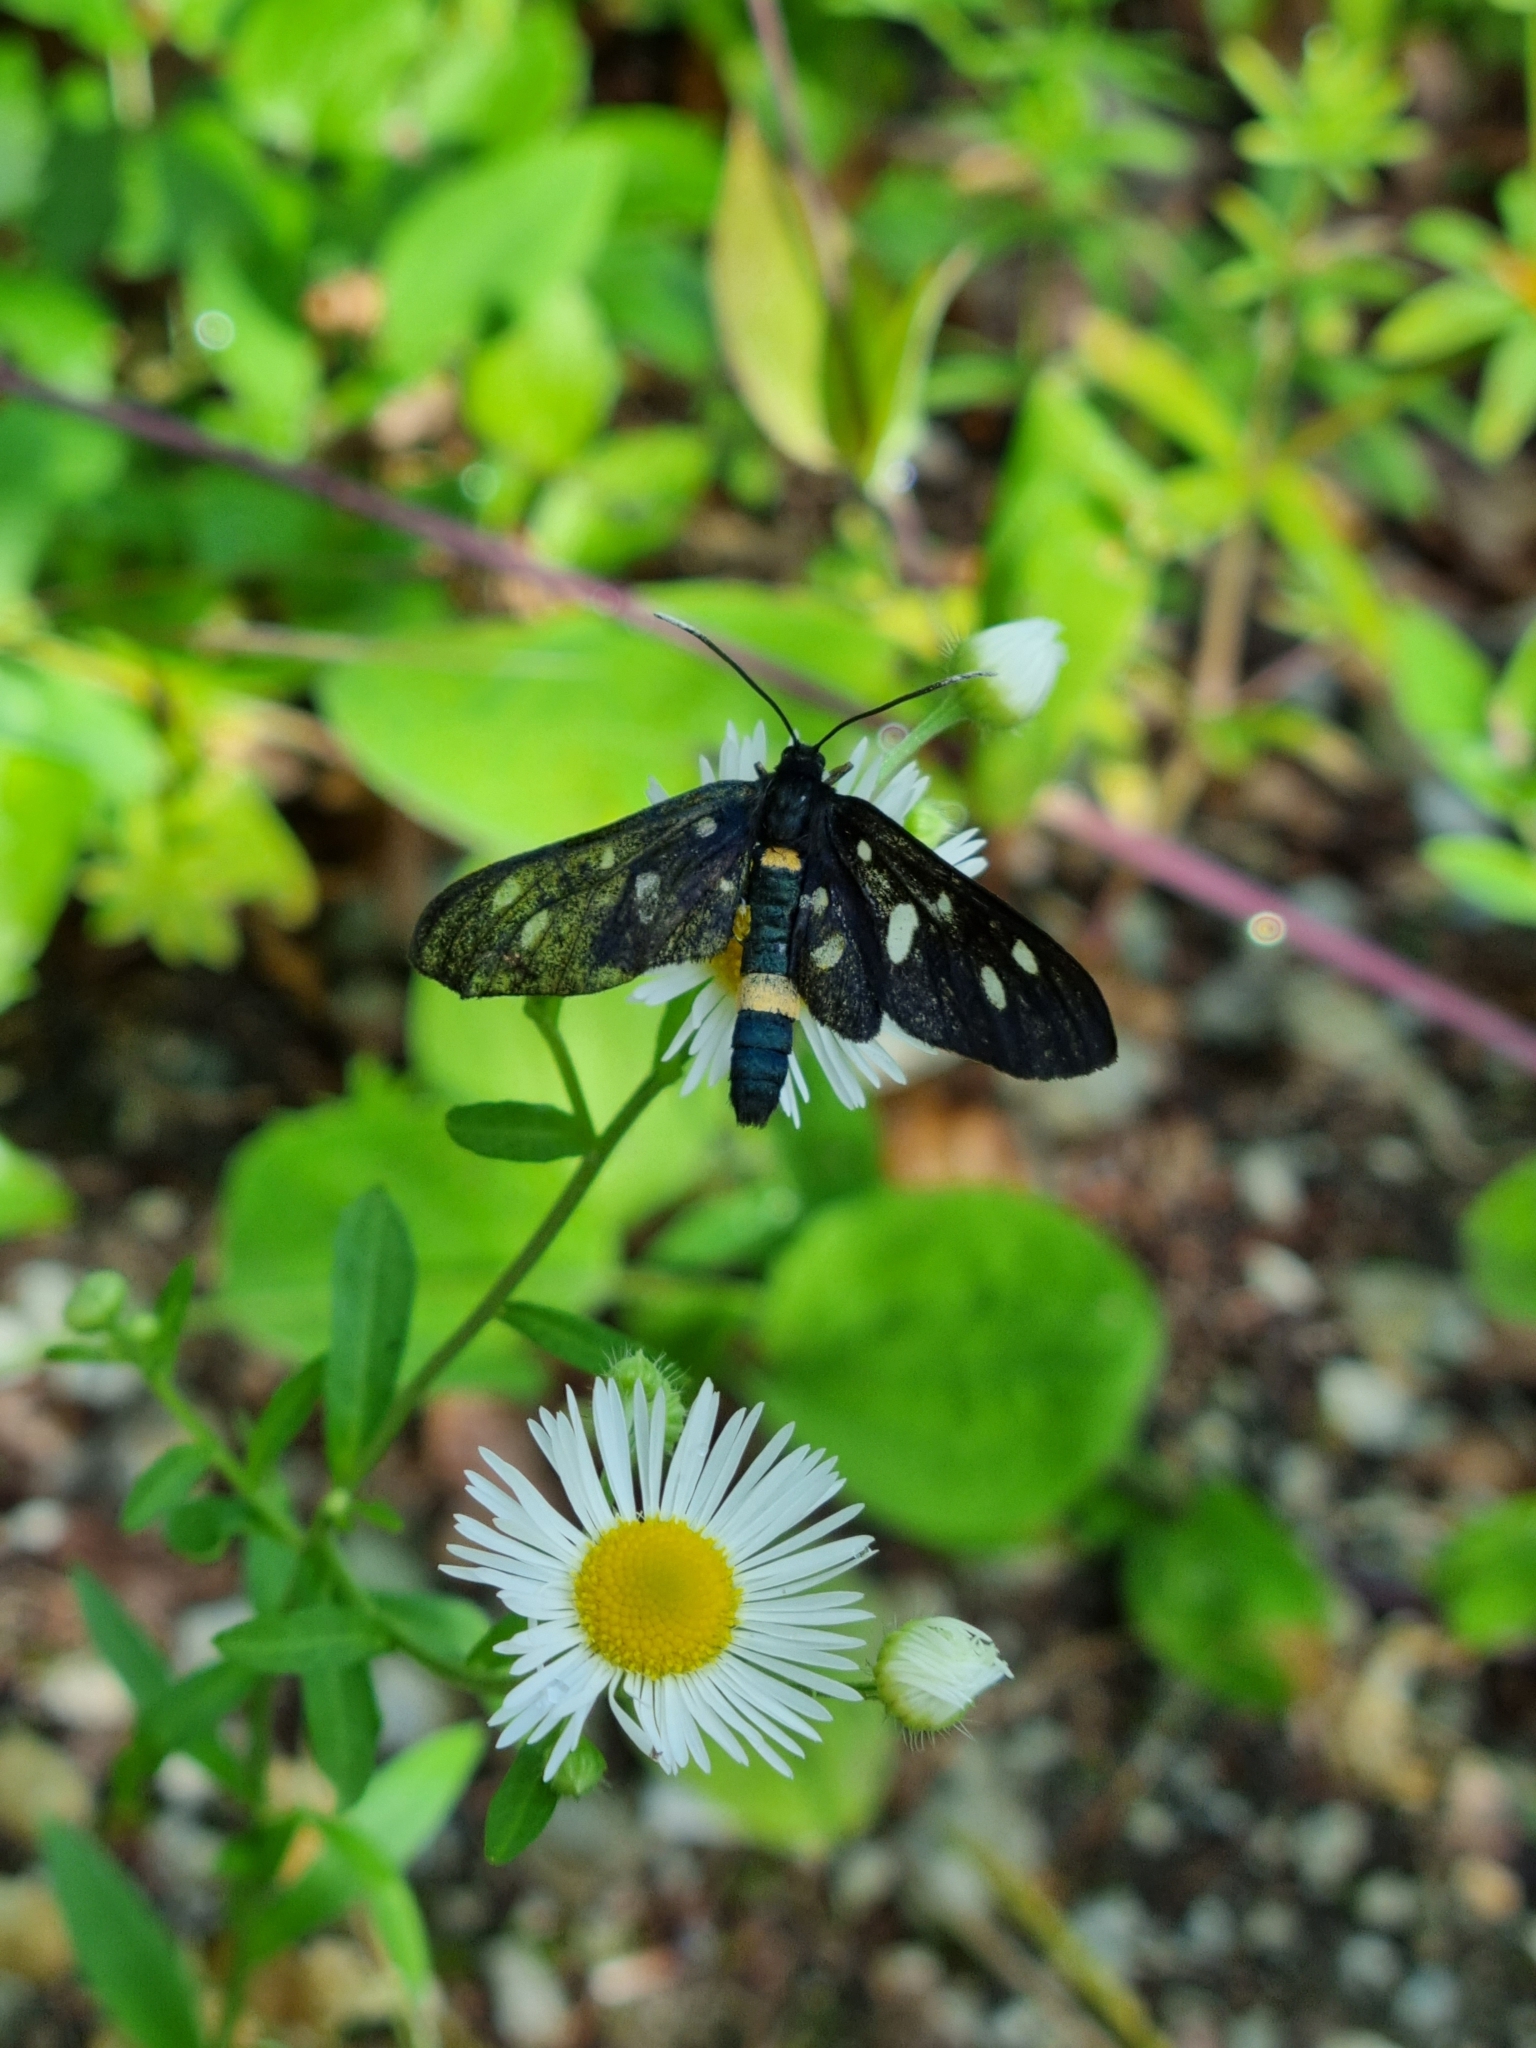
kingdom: Animalia
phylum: Arthropoda
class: Insecta
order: Lepidoptera
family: Erebidae
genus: Amata
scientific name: Amata phegea
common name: Nine-spotted
